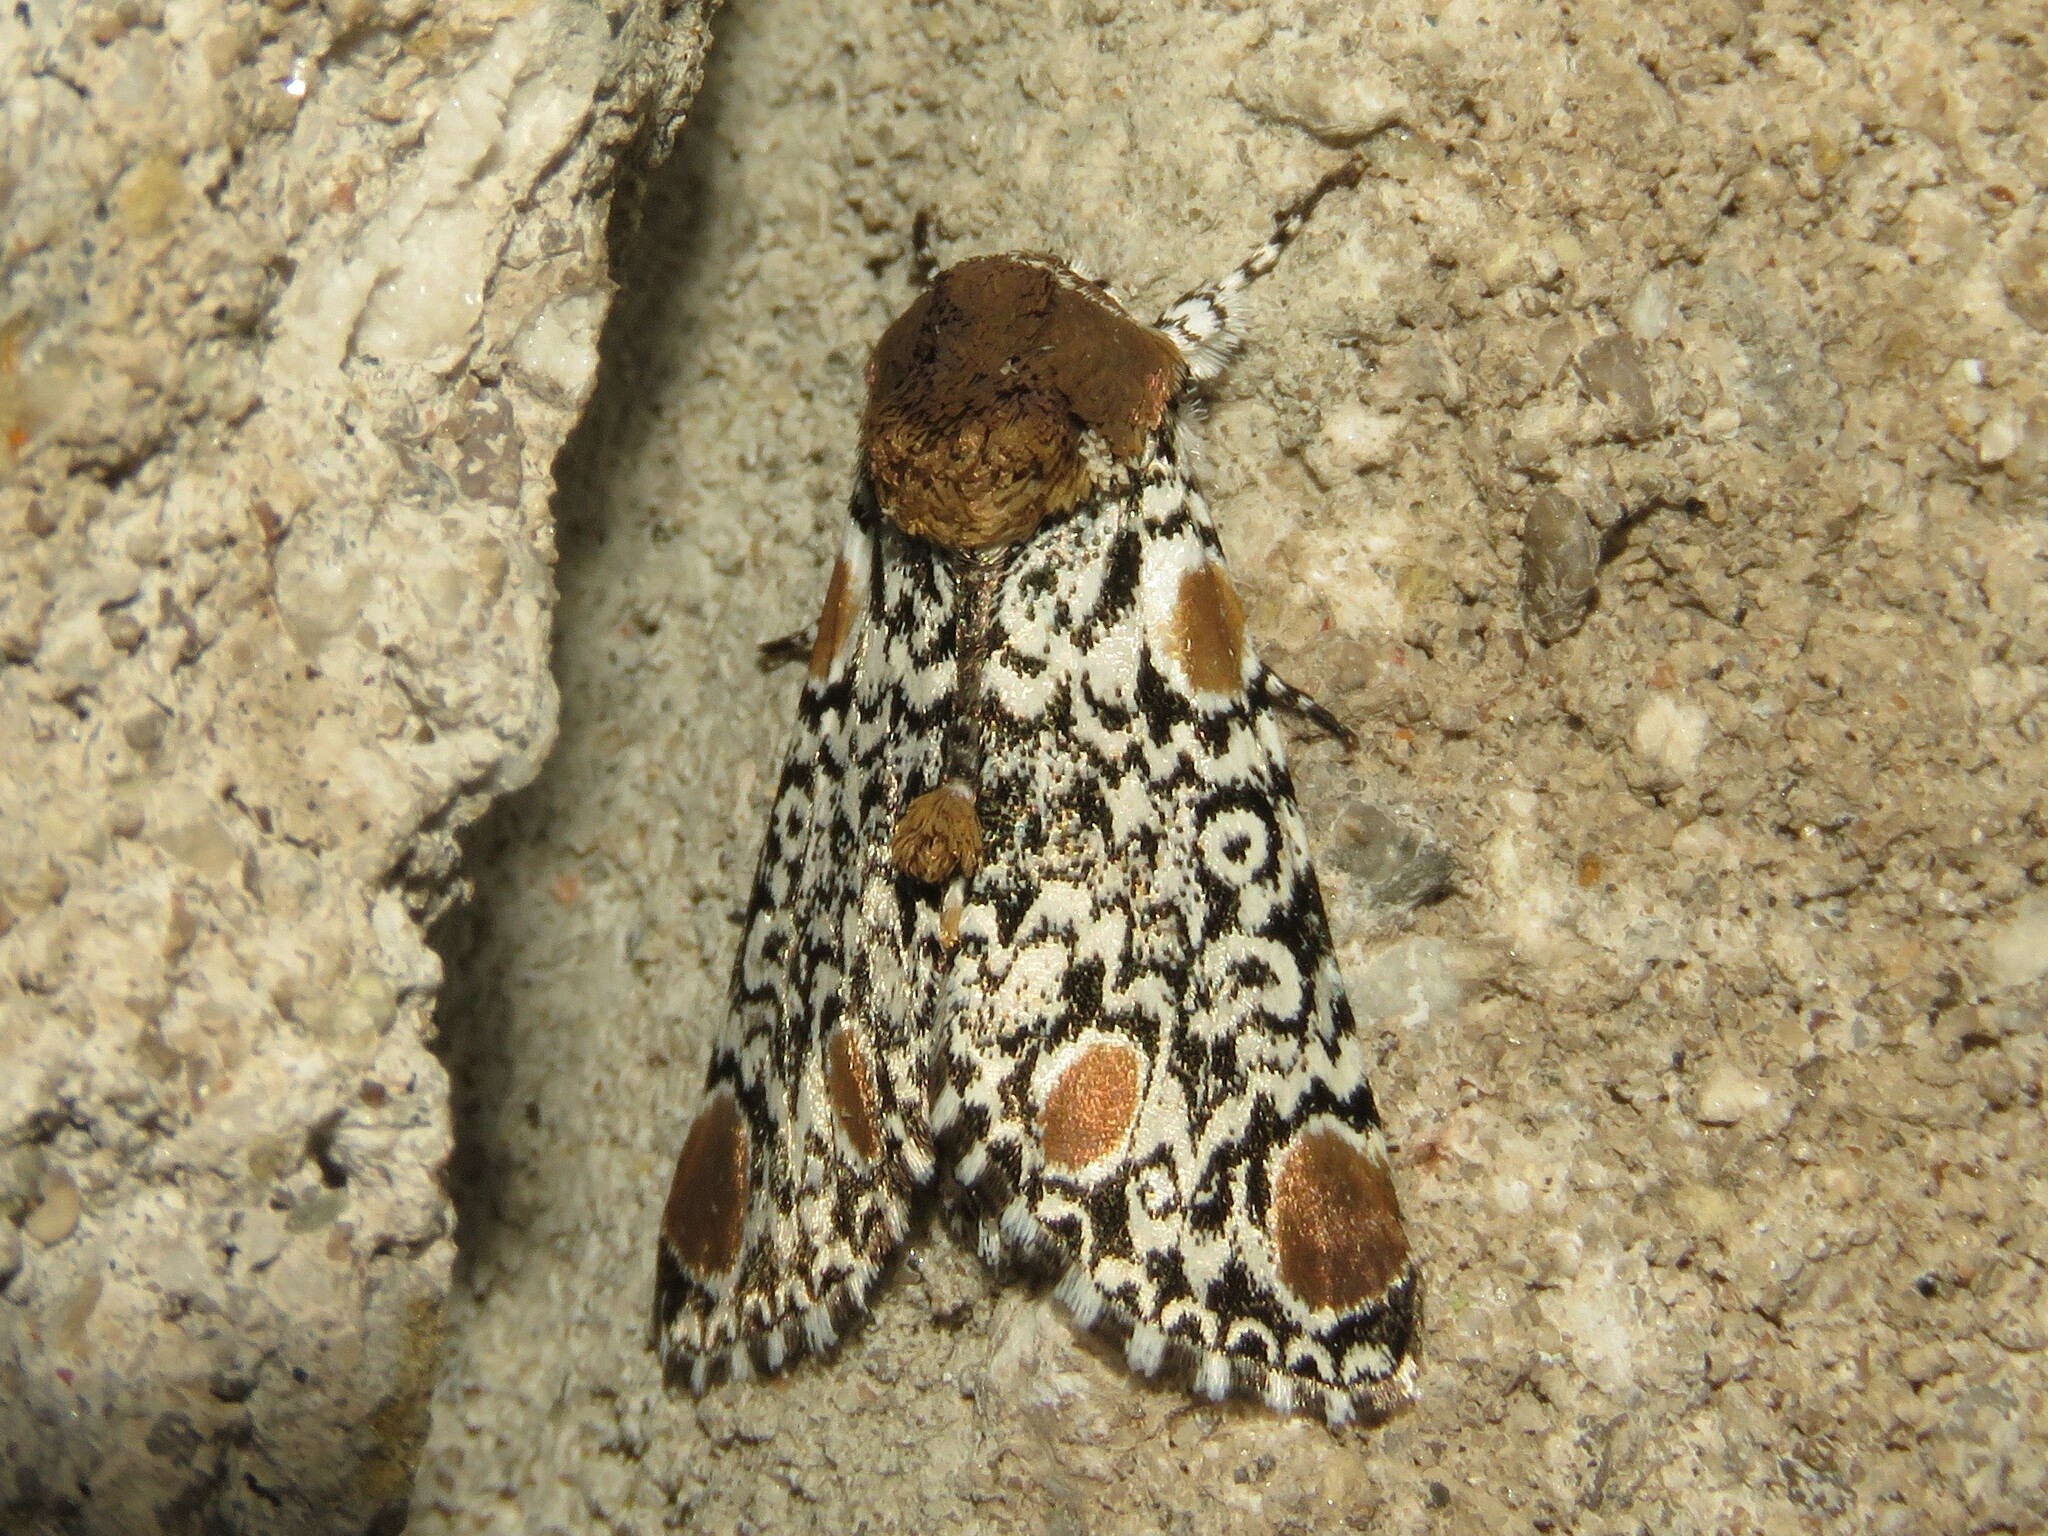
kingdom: Animalia
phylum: Arthropoda
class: Insecta
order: Lepidoptera
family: Noctuidae
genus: Harrisimemna
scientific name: Harrisimemna trisignata
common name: Harris threespot
